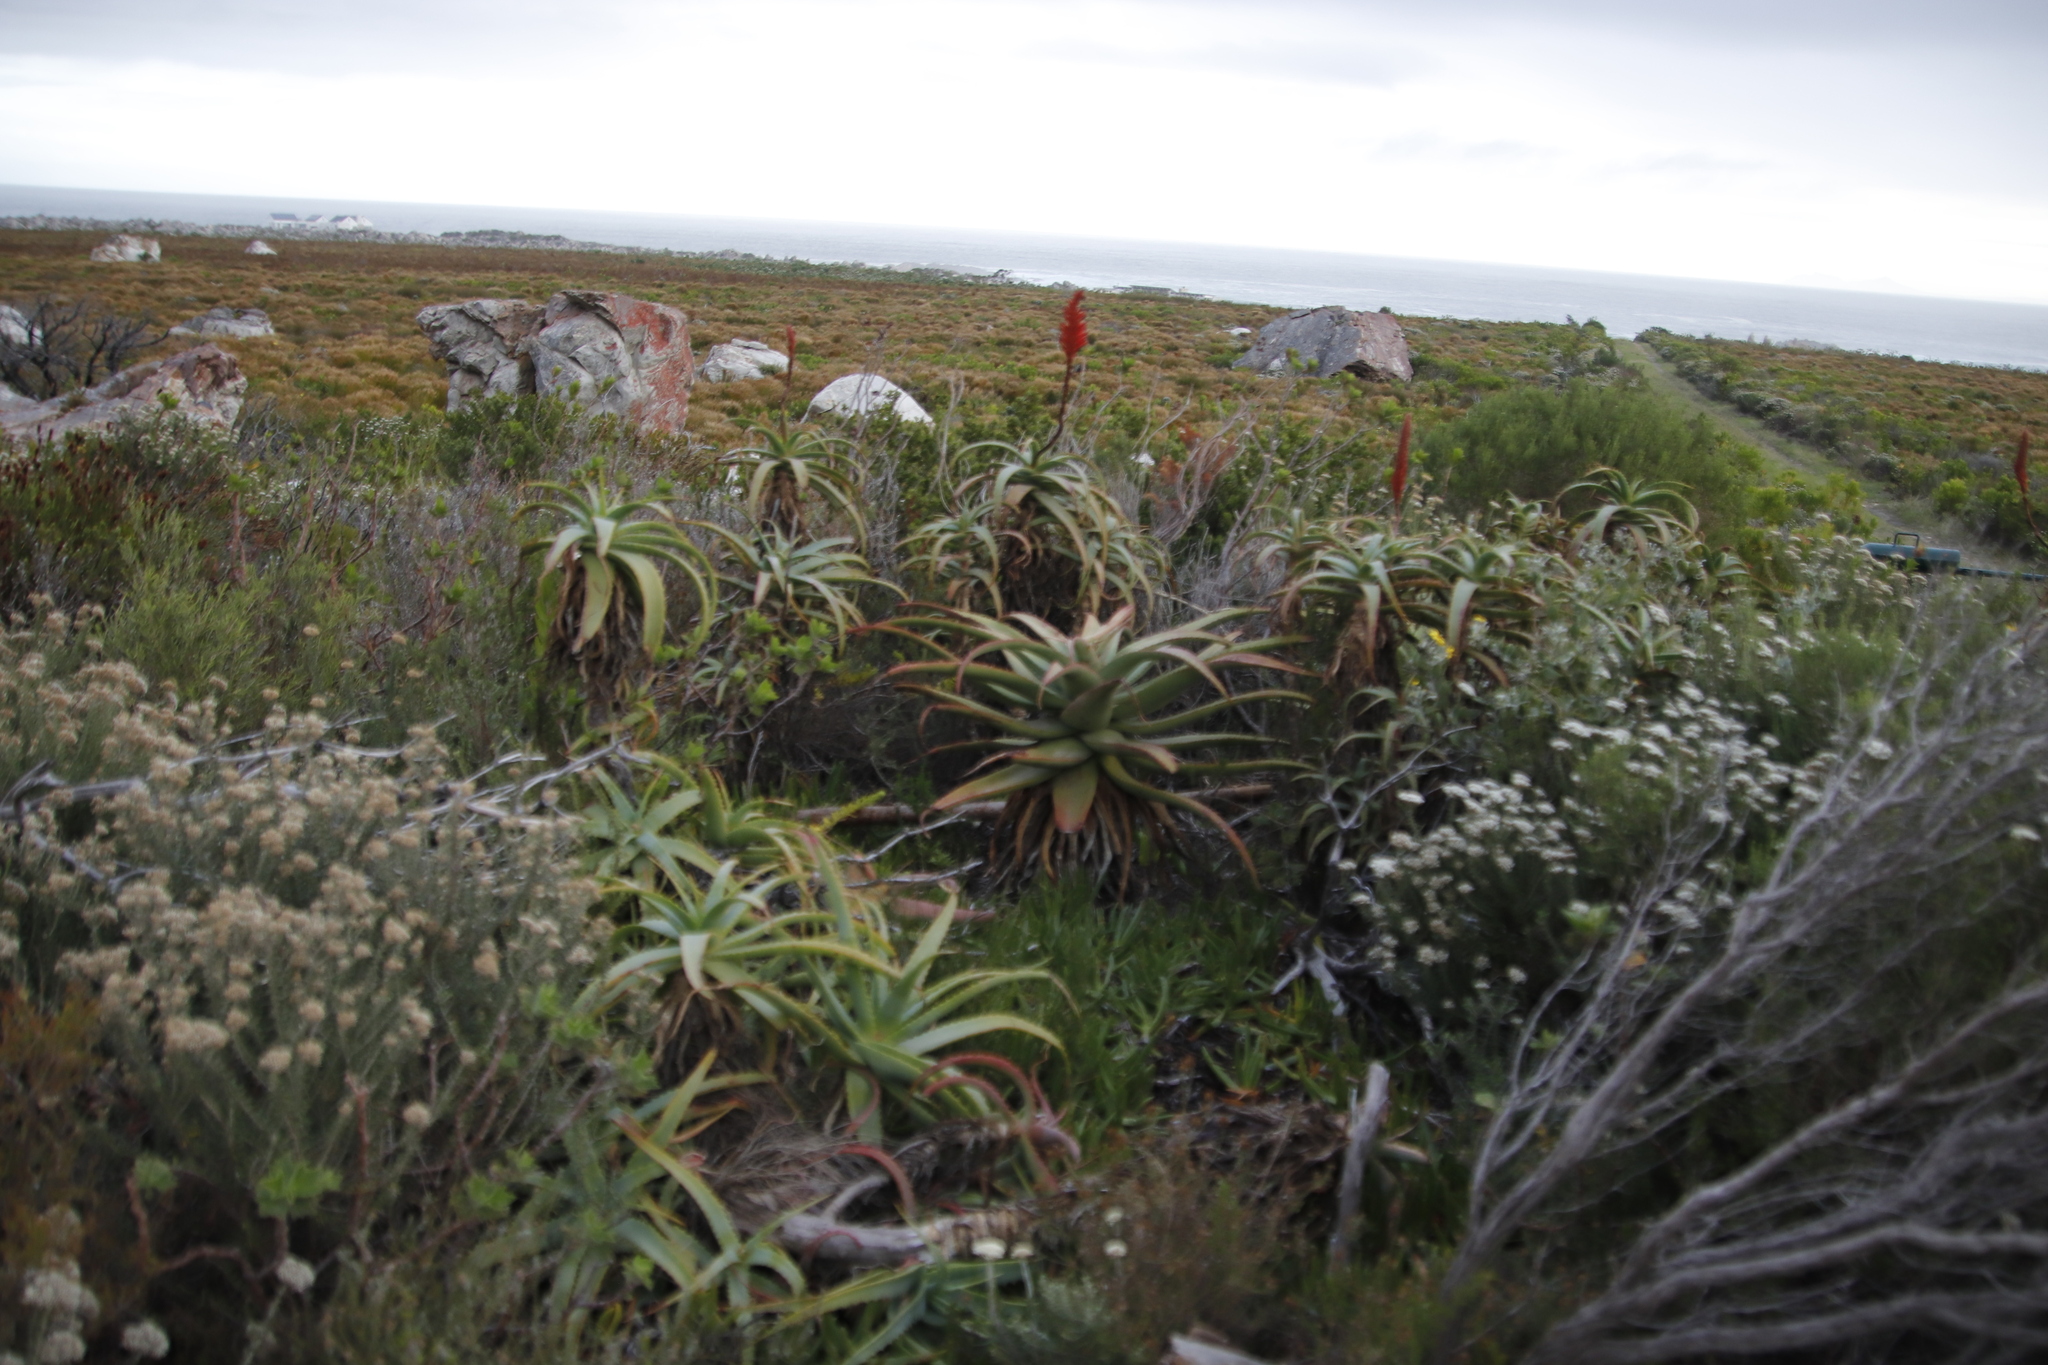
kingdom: Plantae
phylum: Tracheophyta
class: Liliopsida
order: Asparagales
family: Asphodelaceae
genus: Aloe
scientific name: Aloe
